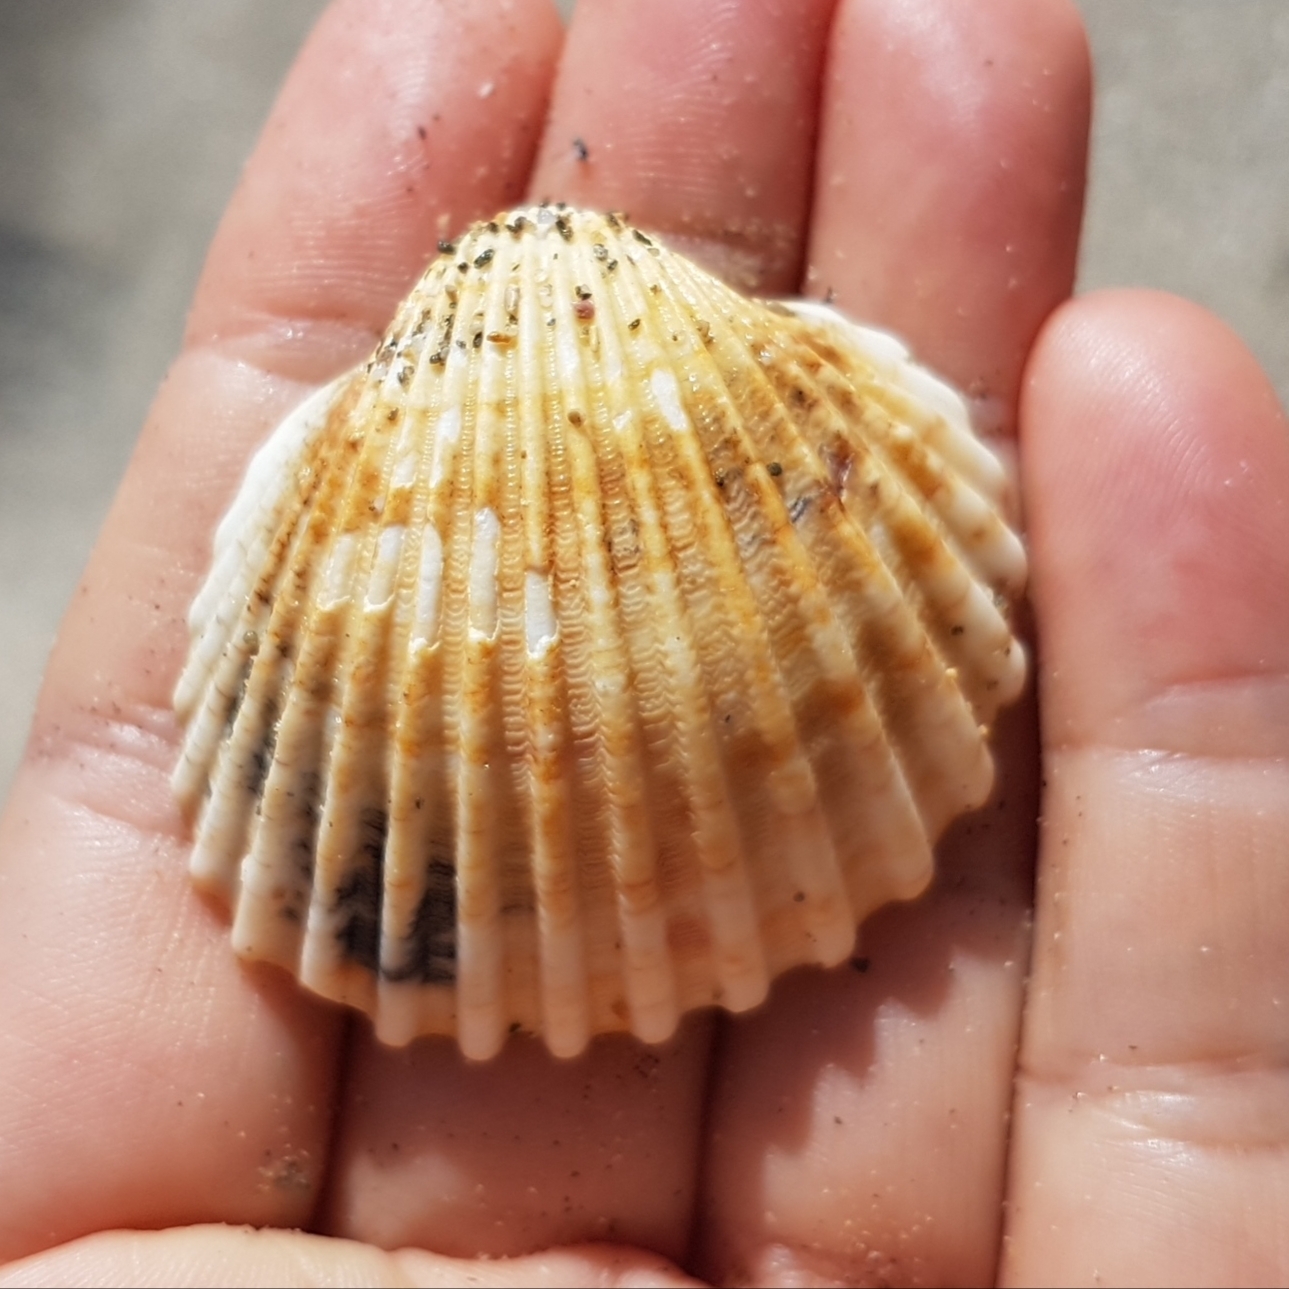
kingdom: Animalia
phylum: Mollusca
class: Bivalvia
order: Cardiida
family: Cardiidae
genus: Acanthocardia
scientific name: Acanthocardia tuberculata
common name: Rough cockle
